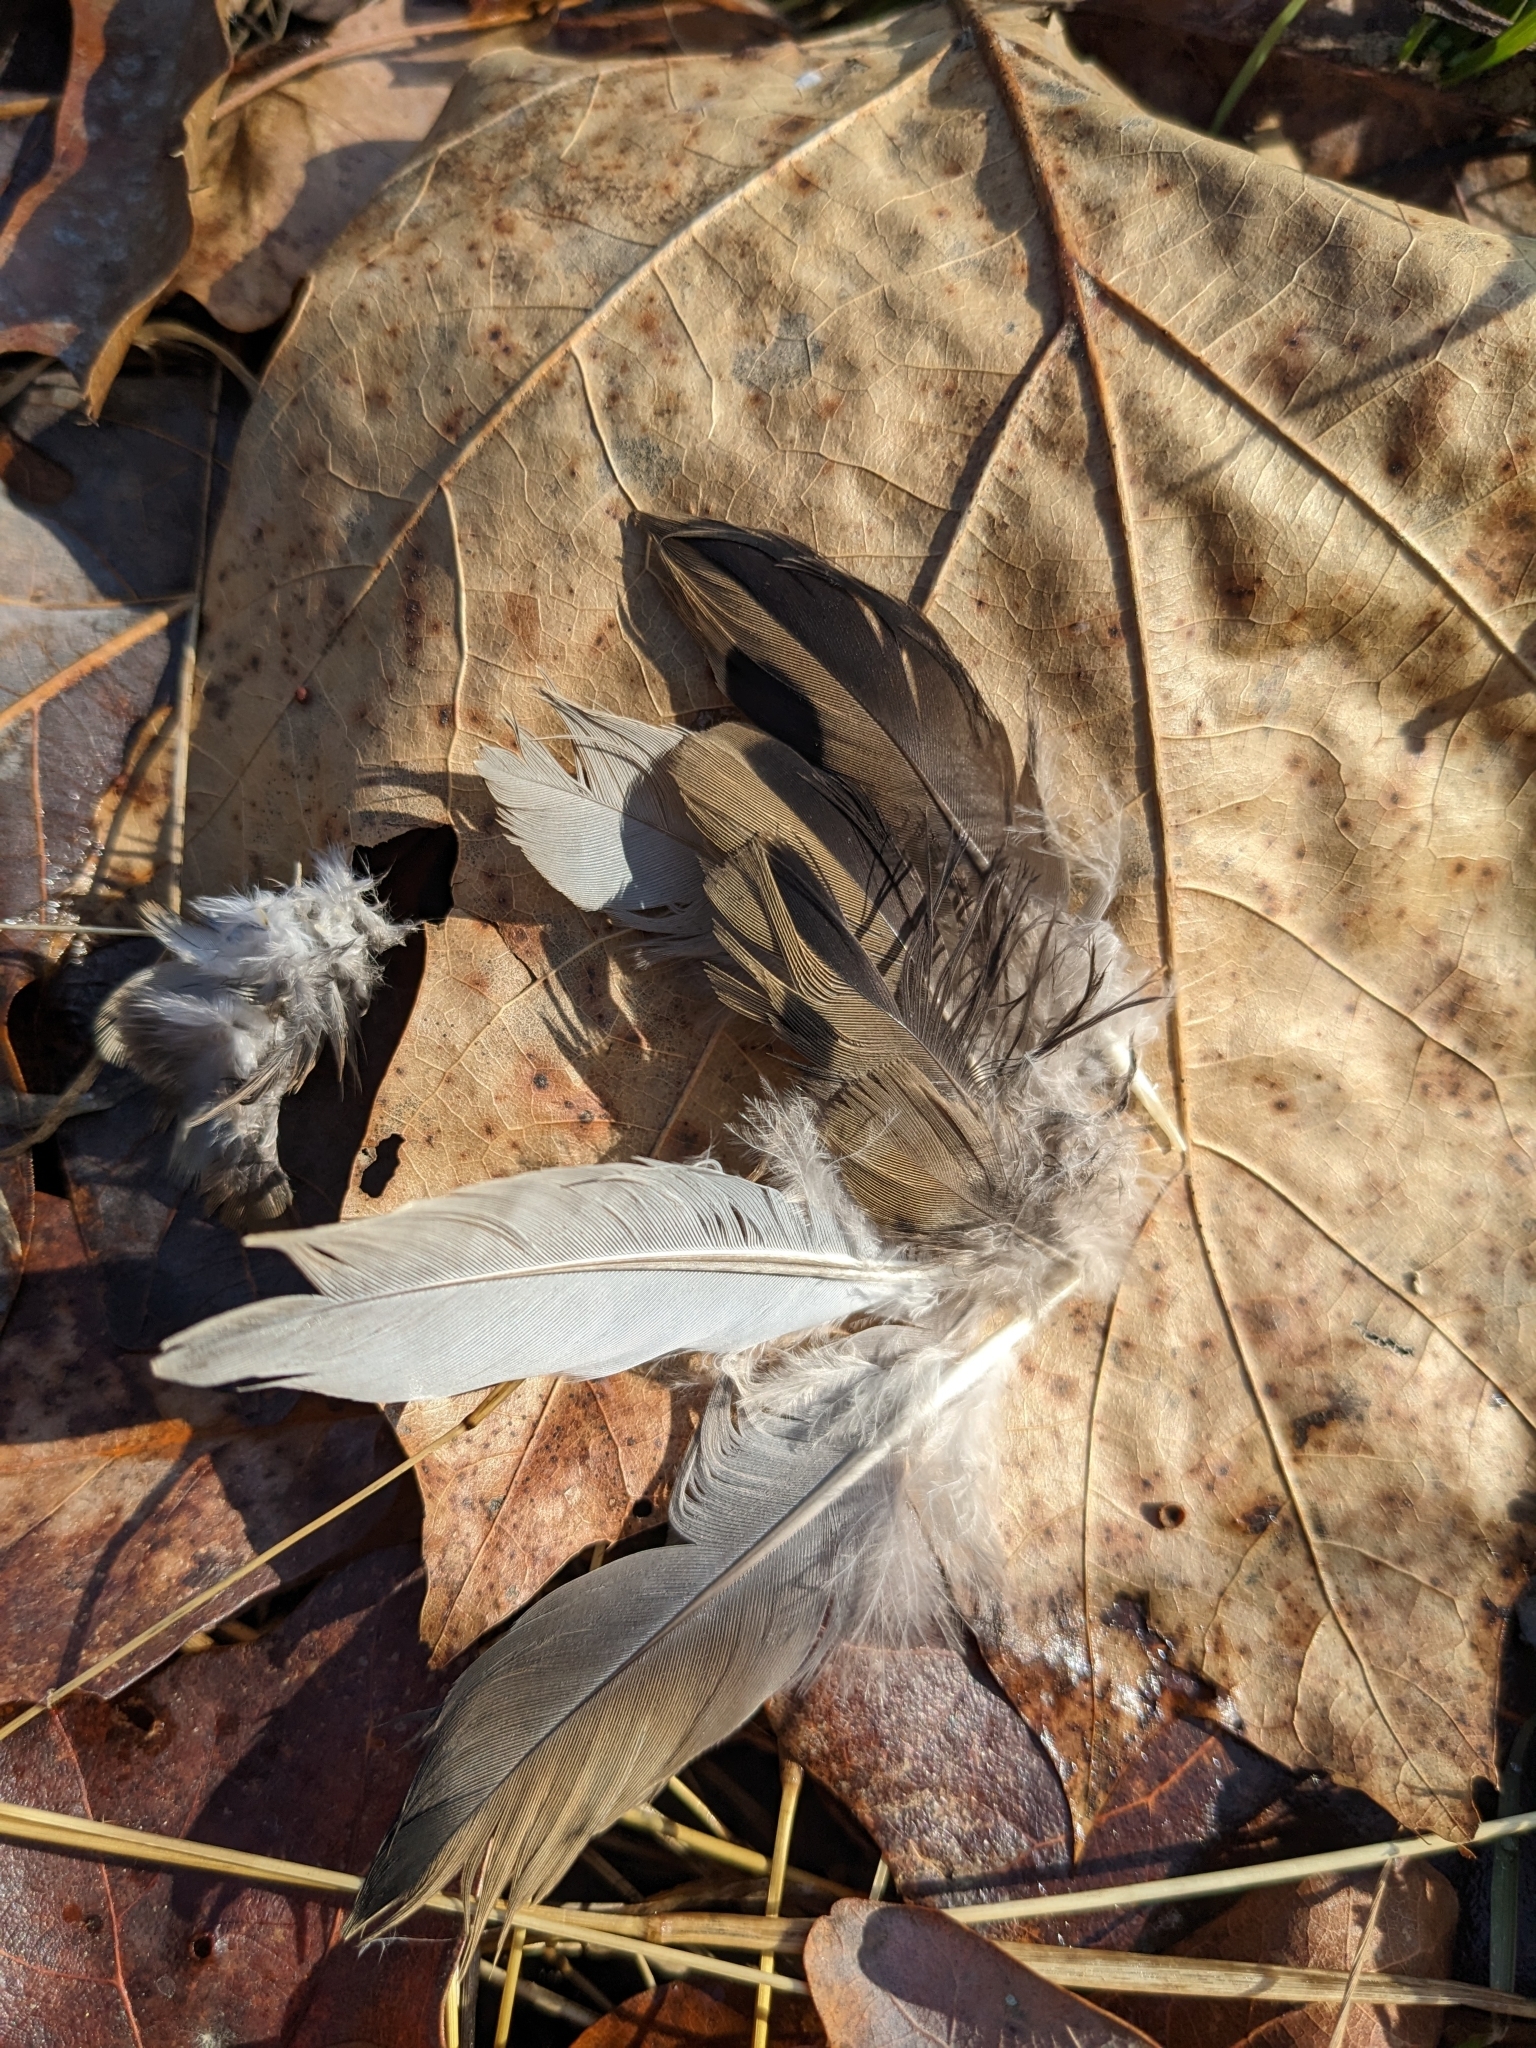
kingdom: Animalia
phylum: Chordata
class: Aves
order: Columbiformes
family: Columbidae
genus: Zenaida
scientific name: Zenaida macroura
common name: Mourning dove
